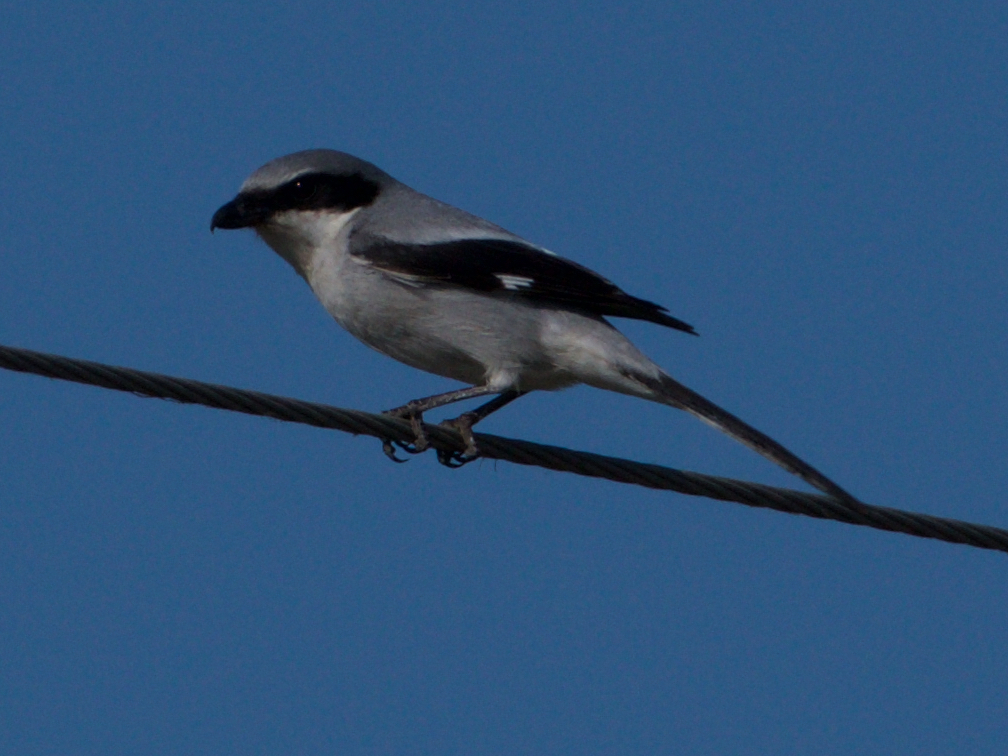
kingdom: Animalia
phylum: Chordata
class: Aves
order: Passeriformes
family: Laniidae
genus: Lanius
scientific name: Lanius ludovicianus
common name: Loggerhead shrike
